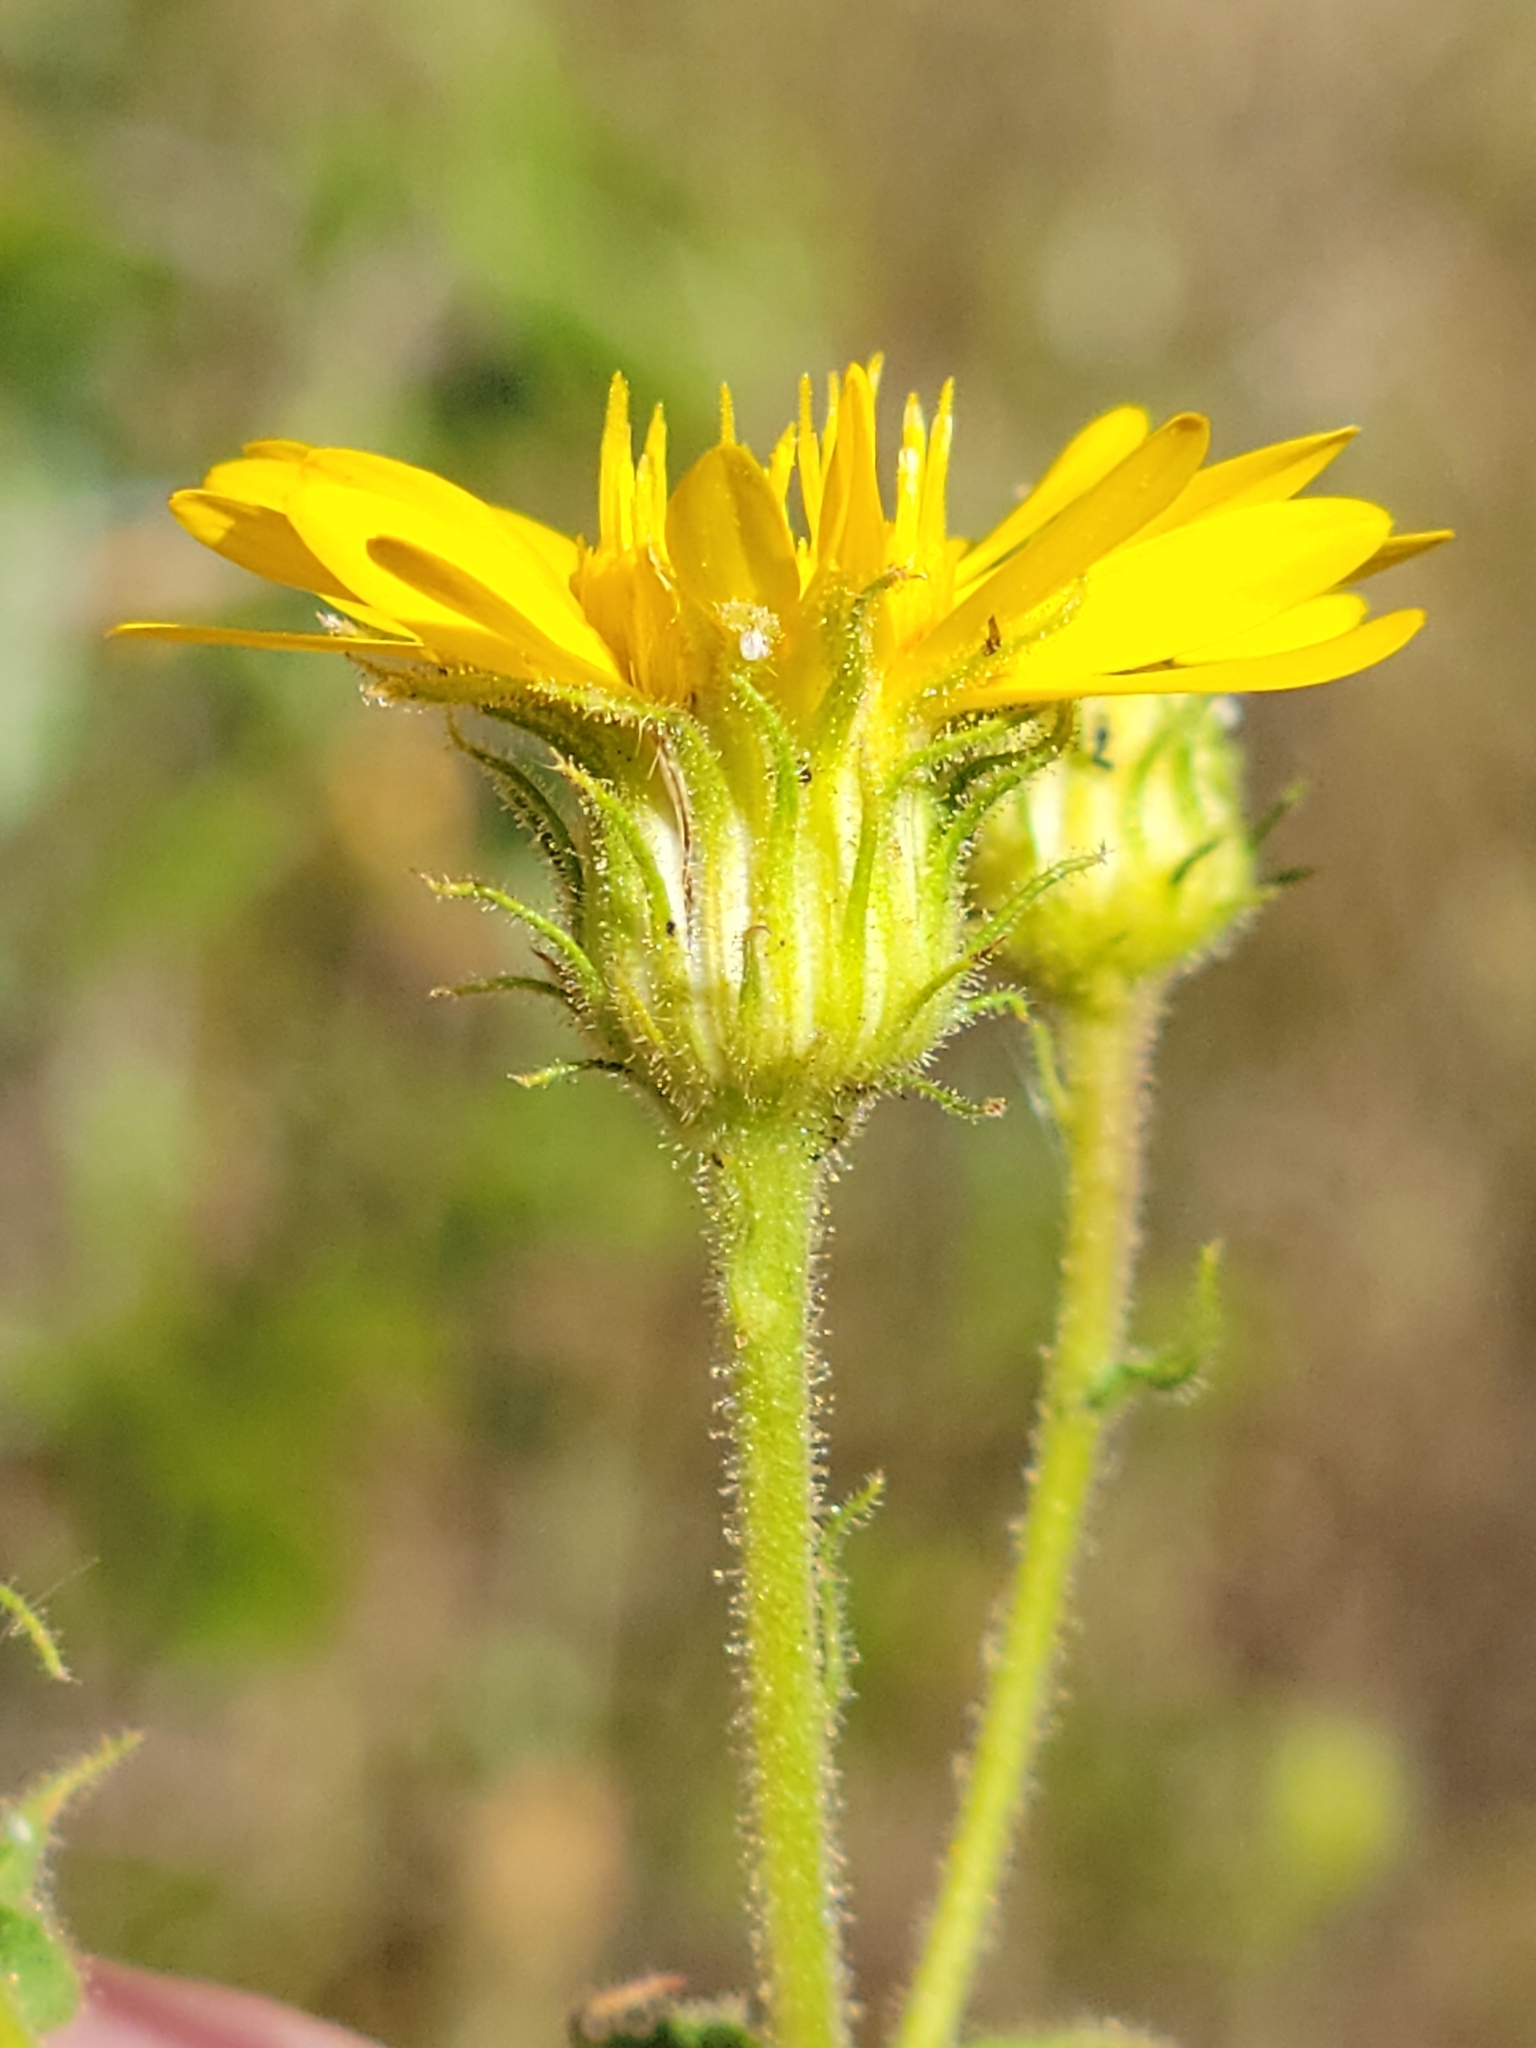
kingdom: Plantae
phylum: Tracheophyta
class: Magnoliopsida
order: Asterales
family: Asteraceae
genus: Chrysopsis
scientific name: Chrysopsis lanuginosa
